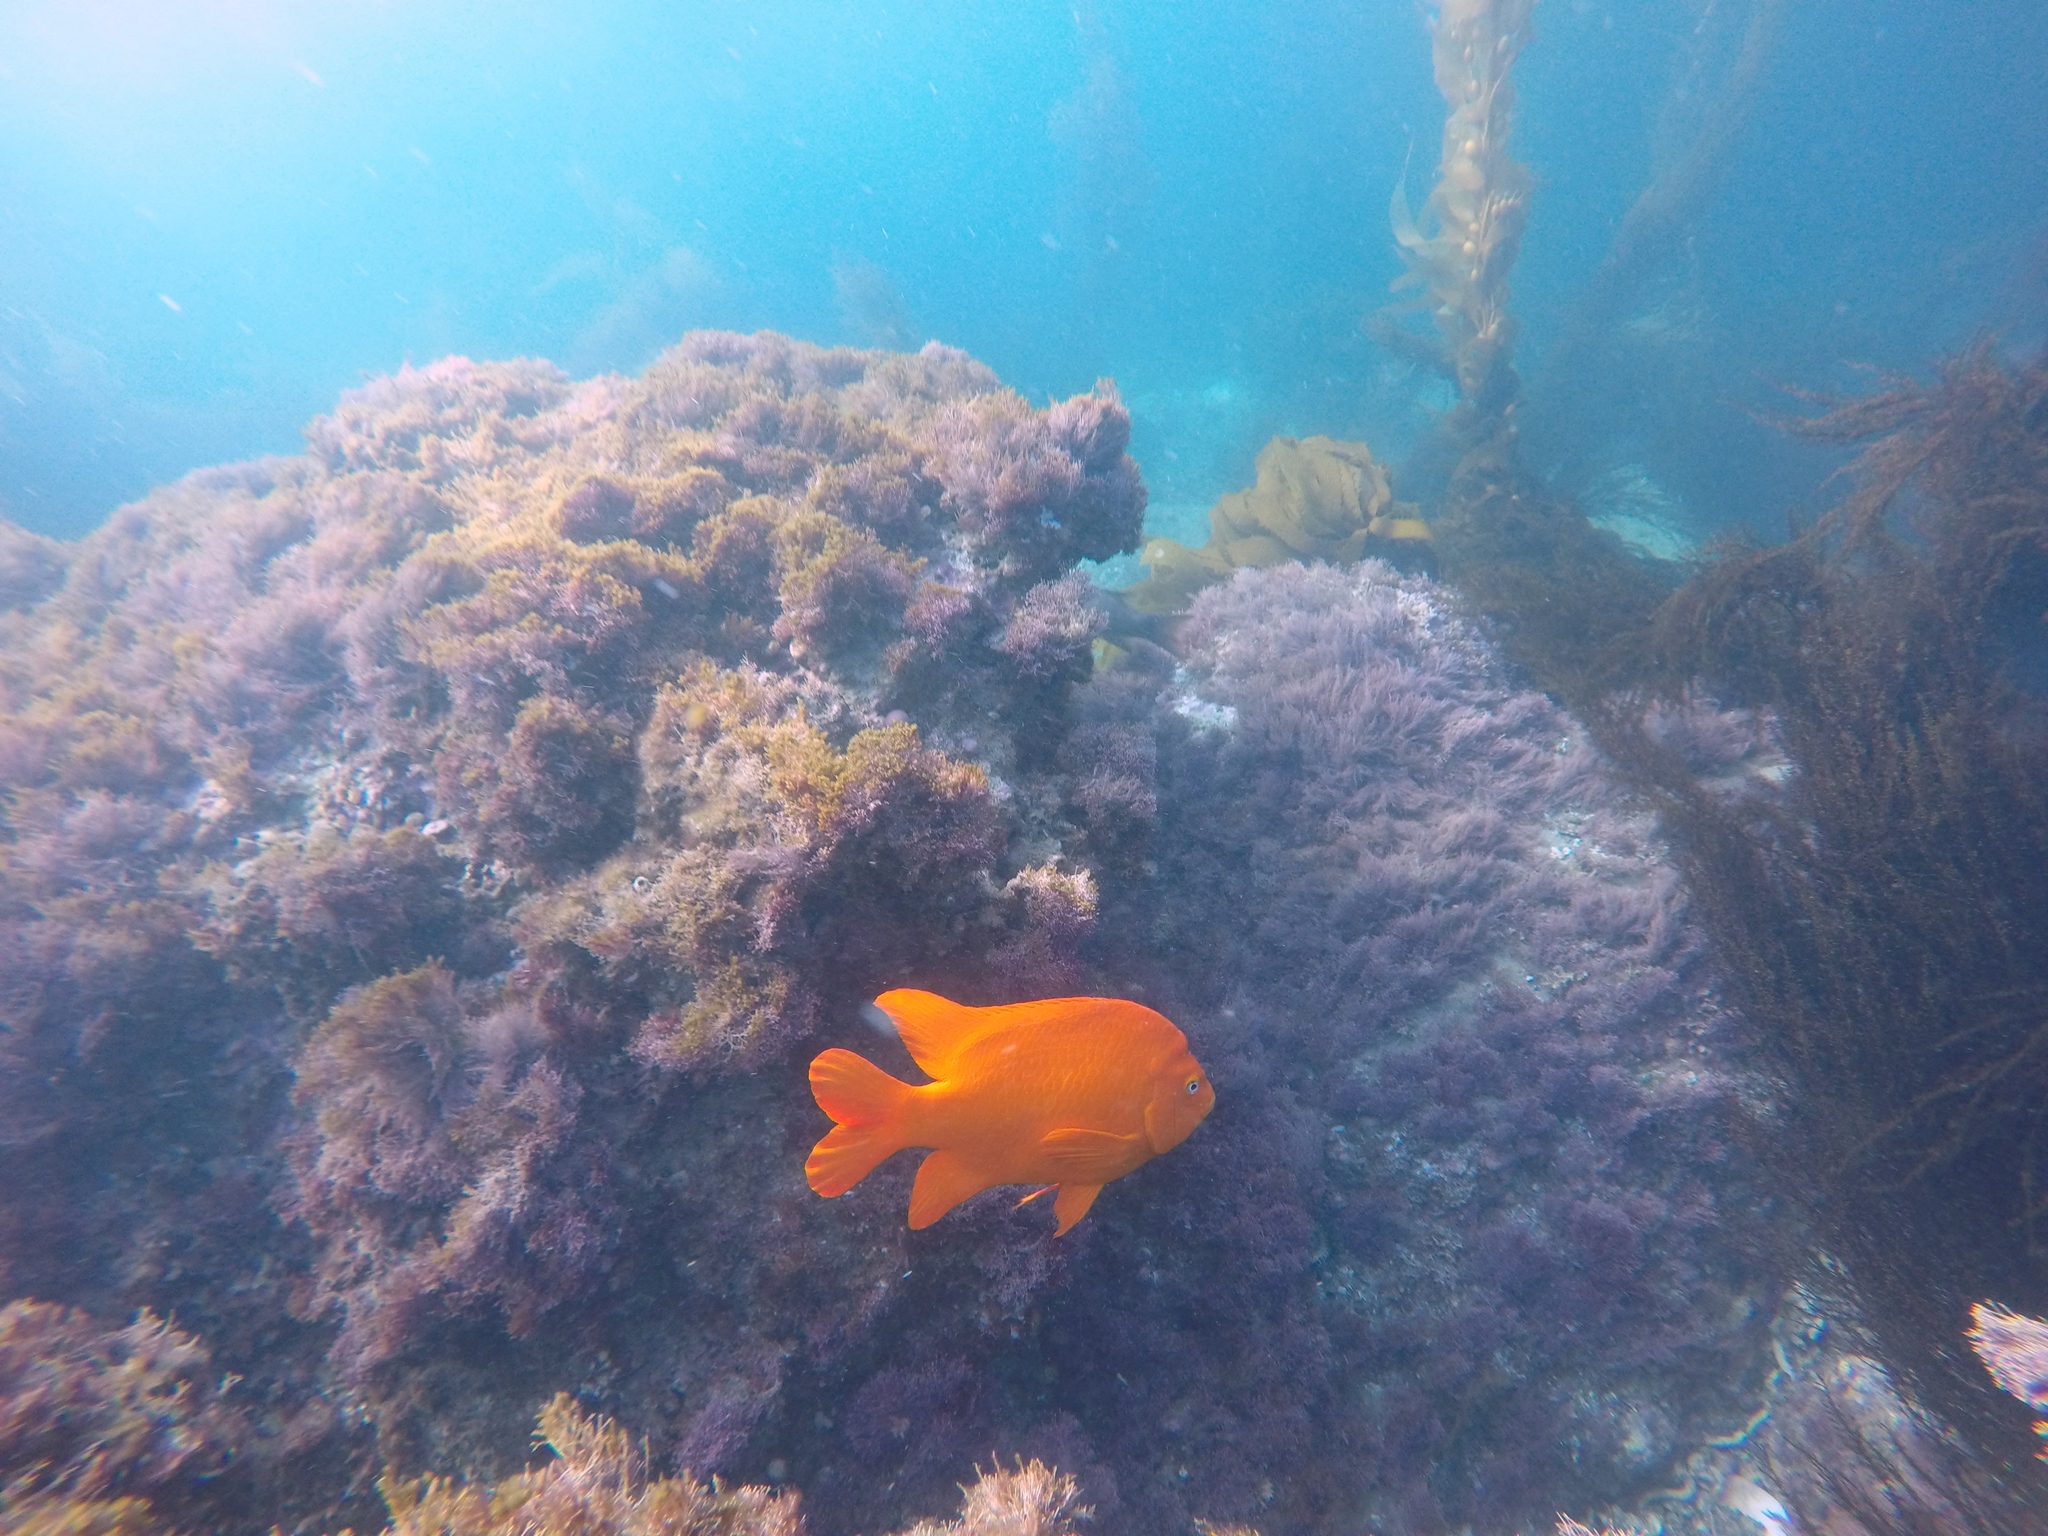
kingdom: Animalia
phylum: Chordata
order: Perciformes
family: Pomacentridae
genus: Hypsypops
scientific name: Hypsypops rubicundus
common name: Garibaldi
